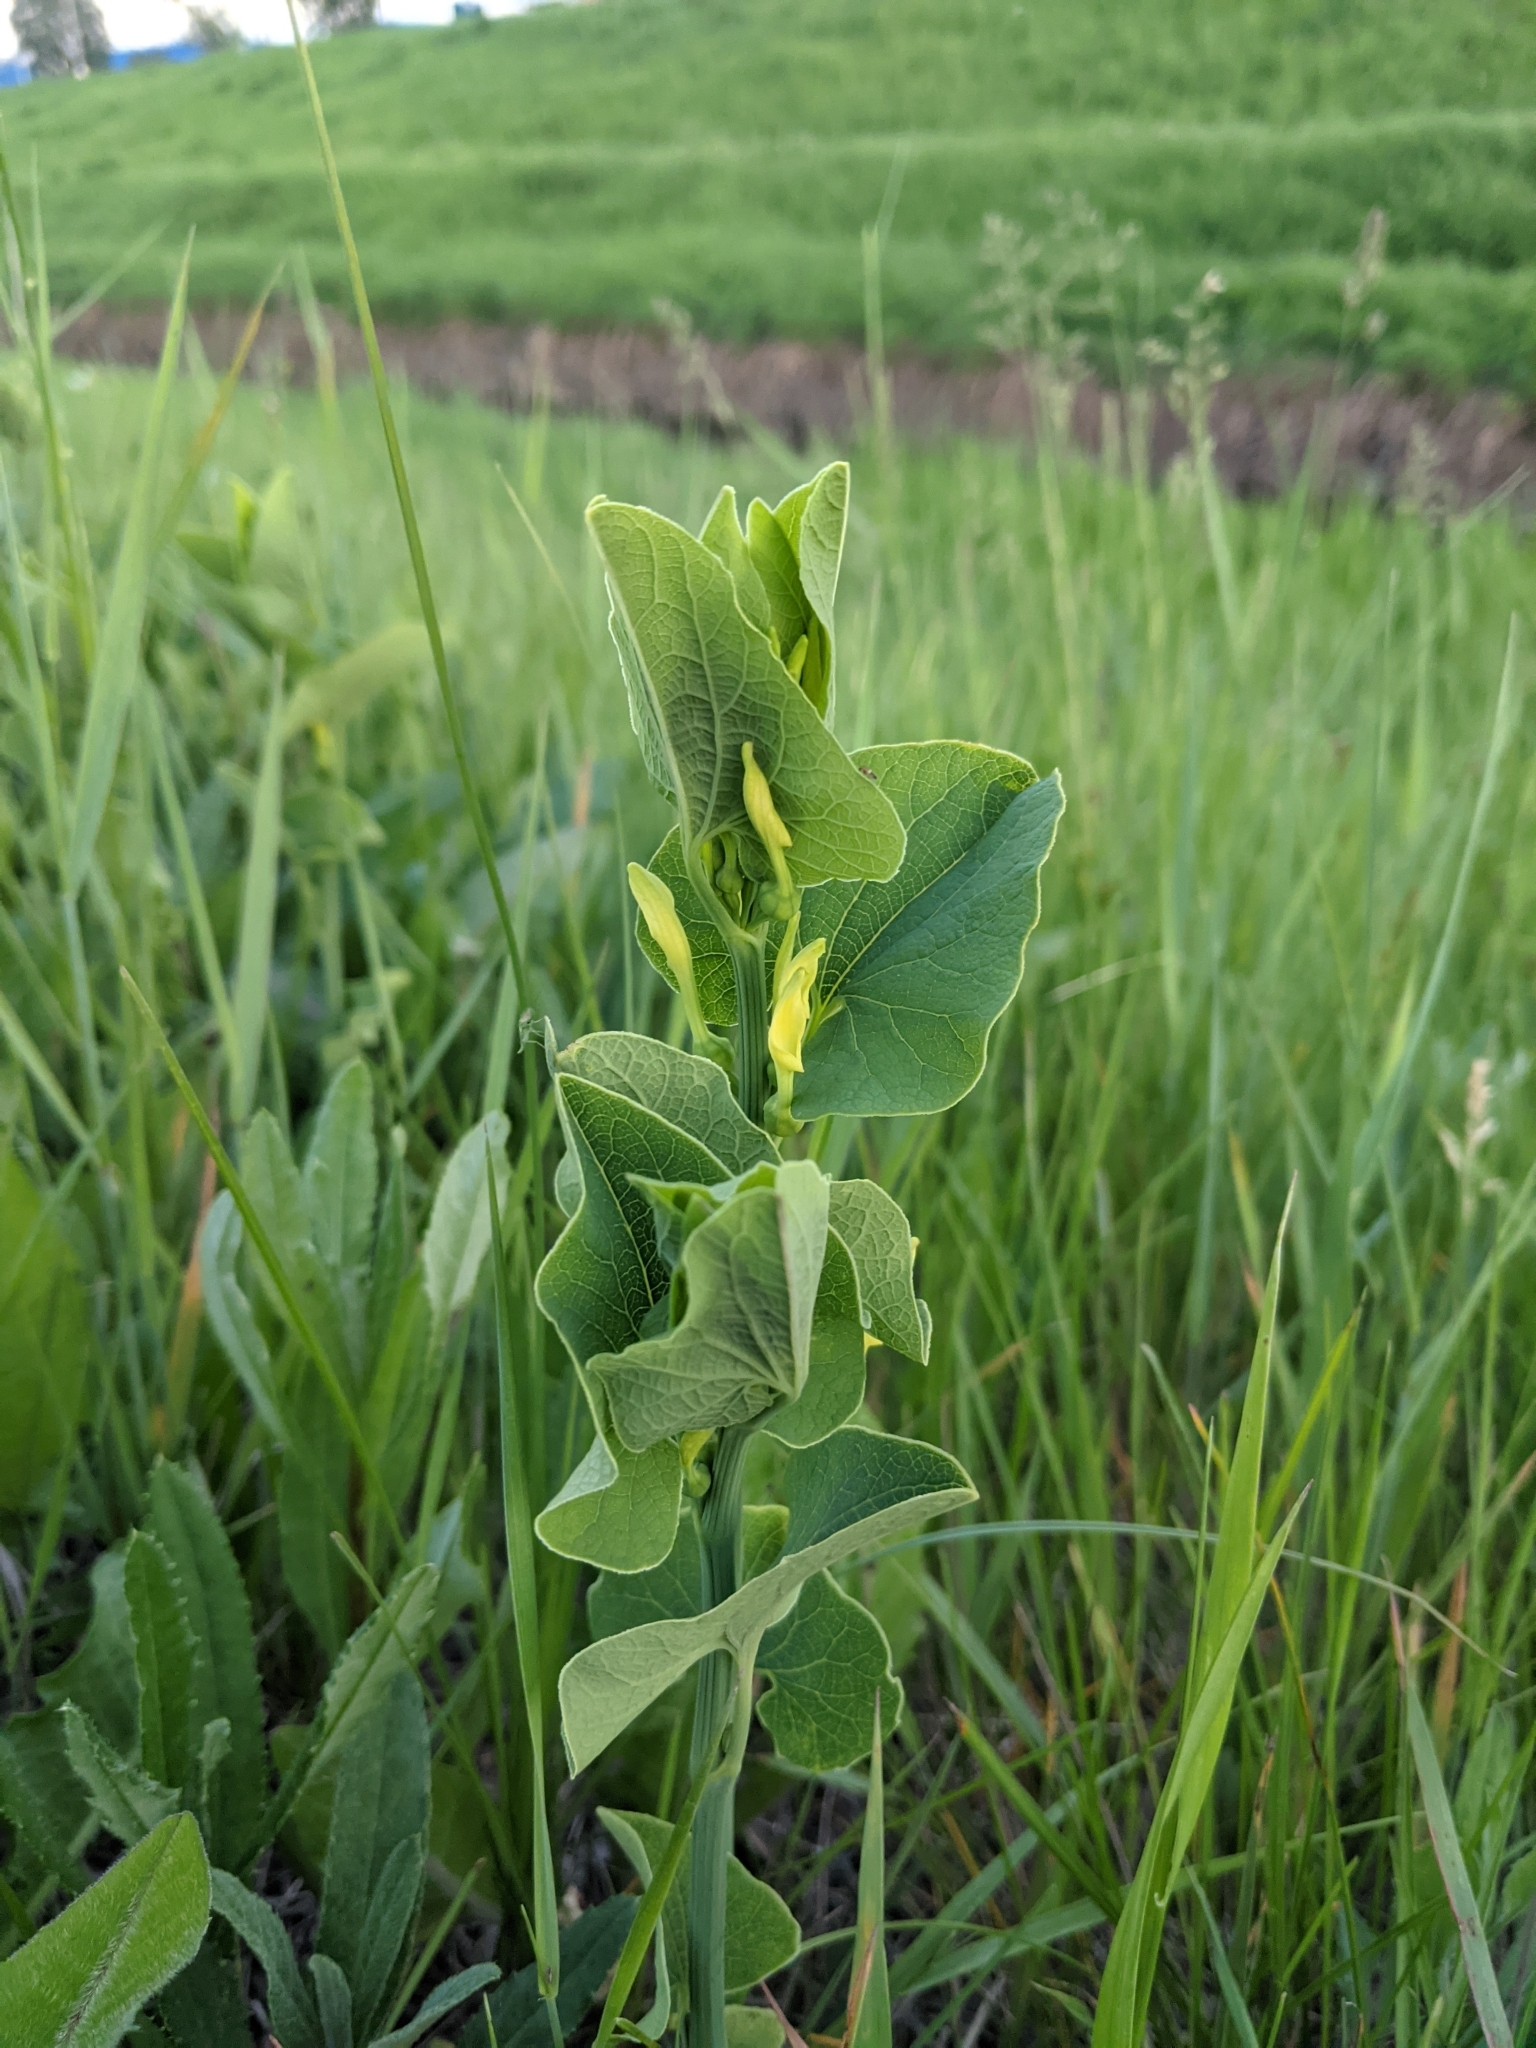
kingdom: Plantae
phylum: Tracheophyta
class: Magnoliopsida
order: Piperales
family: Aristolochiaceae
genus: Aristolochia
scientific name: Aristolochia clematitis
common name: Birthwort
